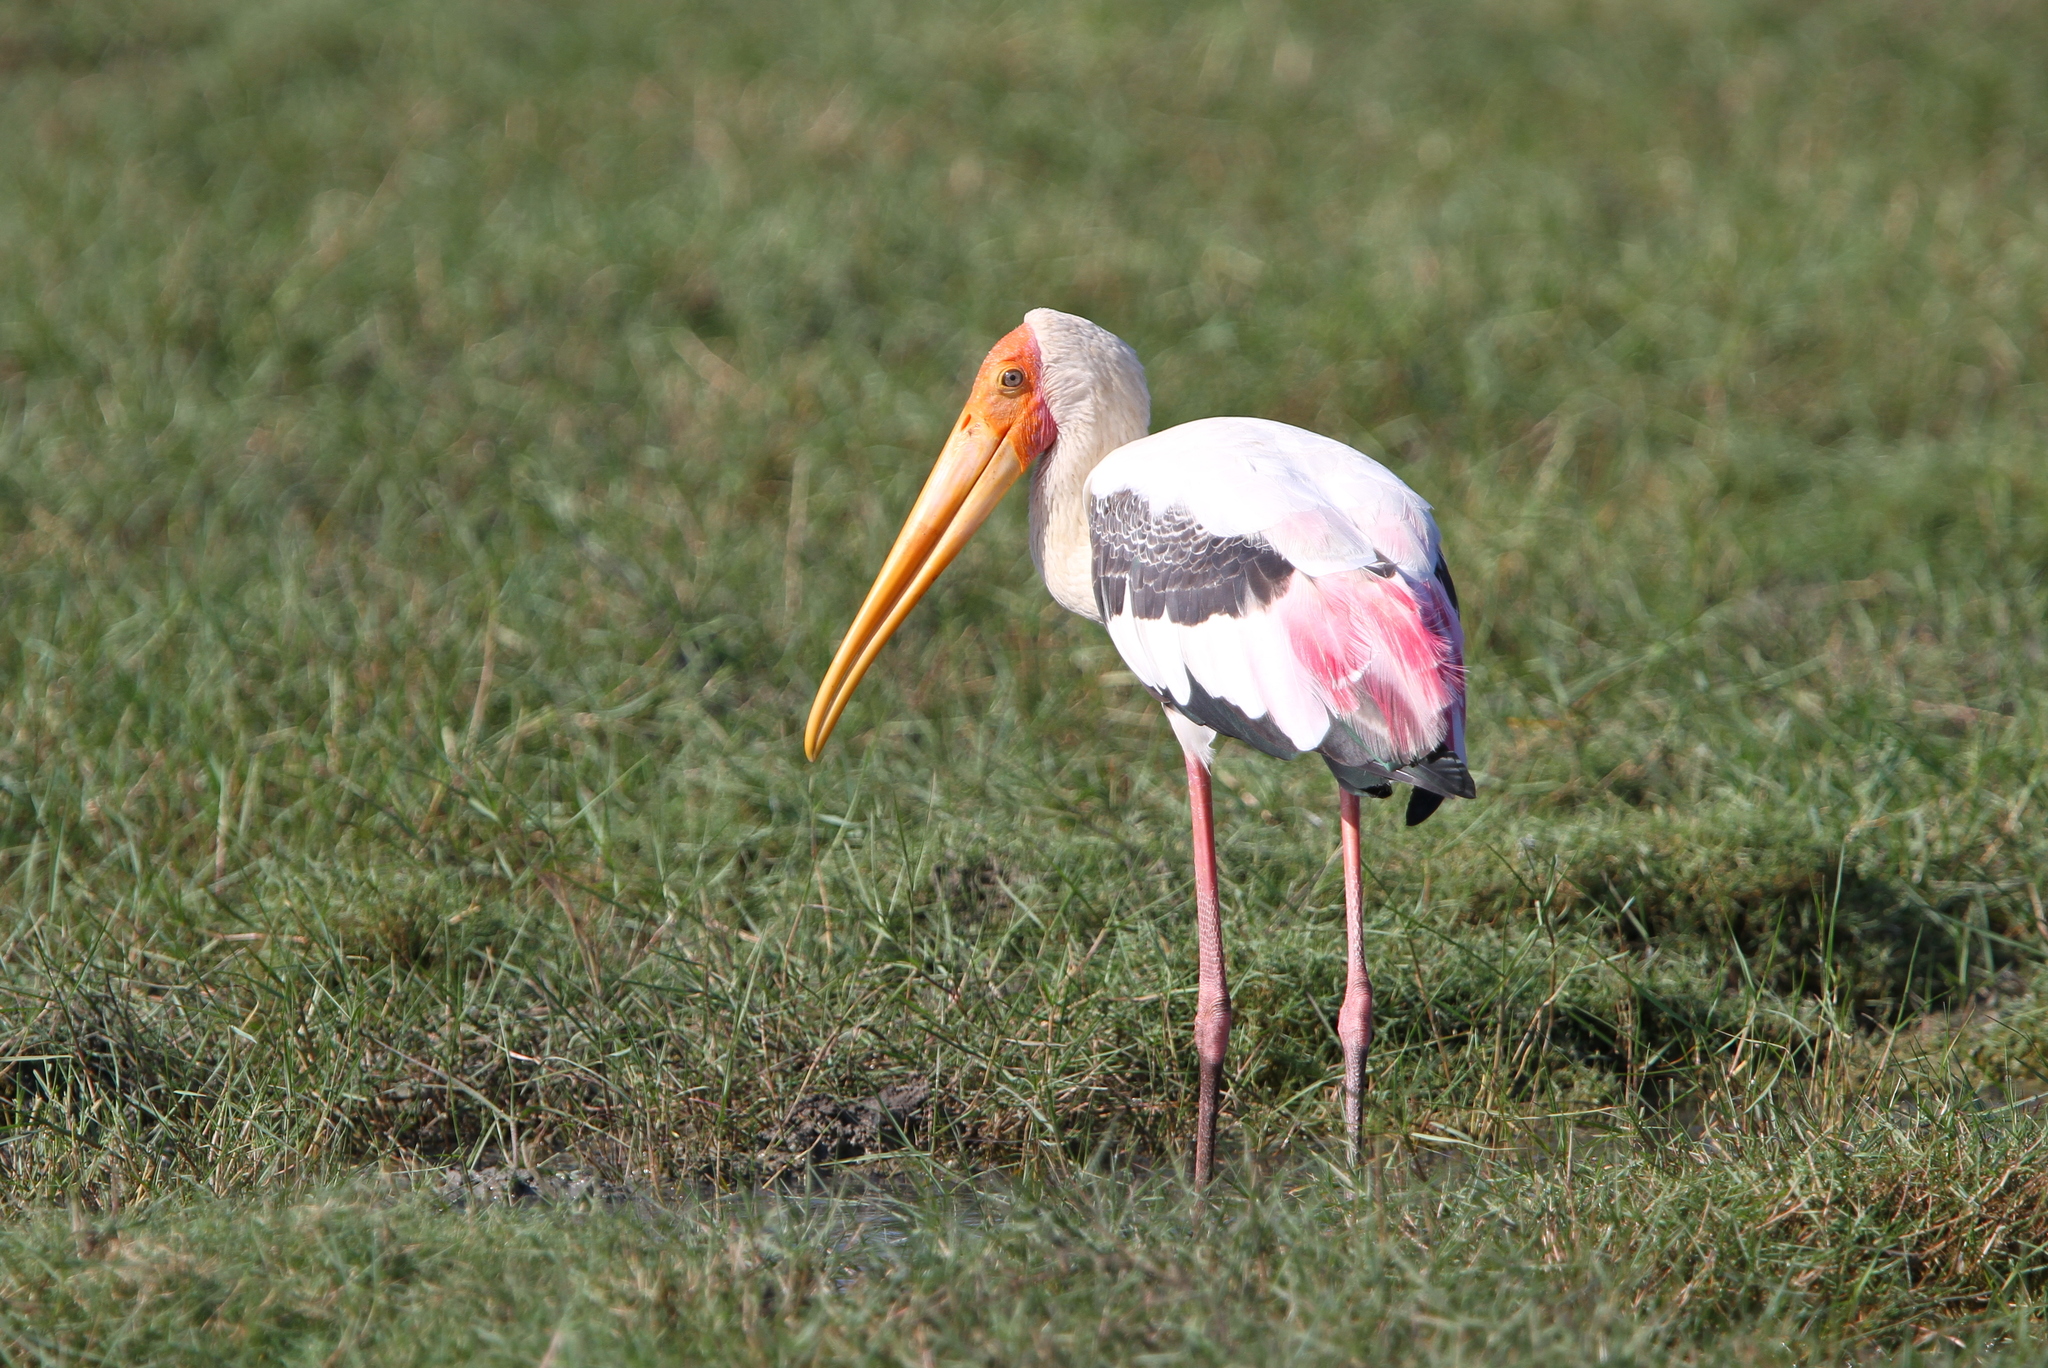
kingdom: Animalia
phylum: Chordata
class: Aves
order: Ciconiiformes
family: Ciconiidae
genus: Mycteria
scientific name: Mycteria leucocephala
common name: Painted stork
